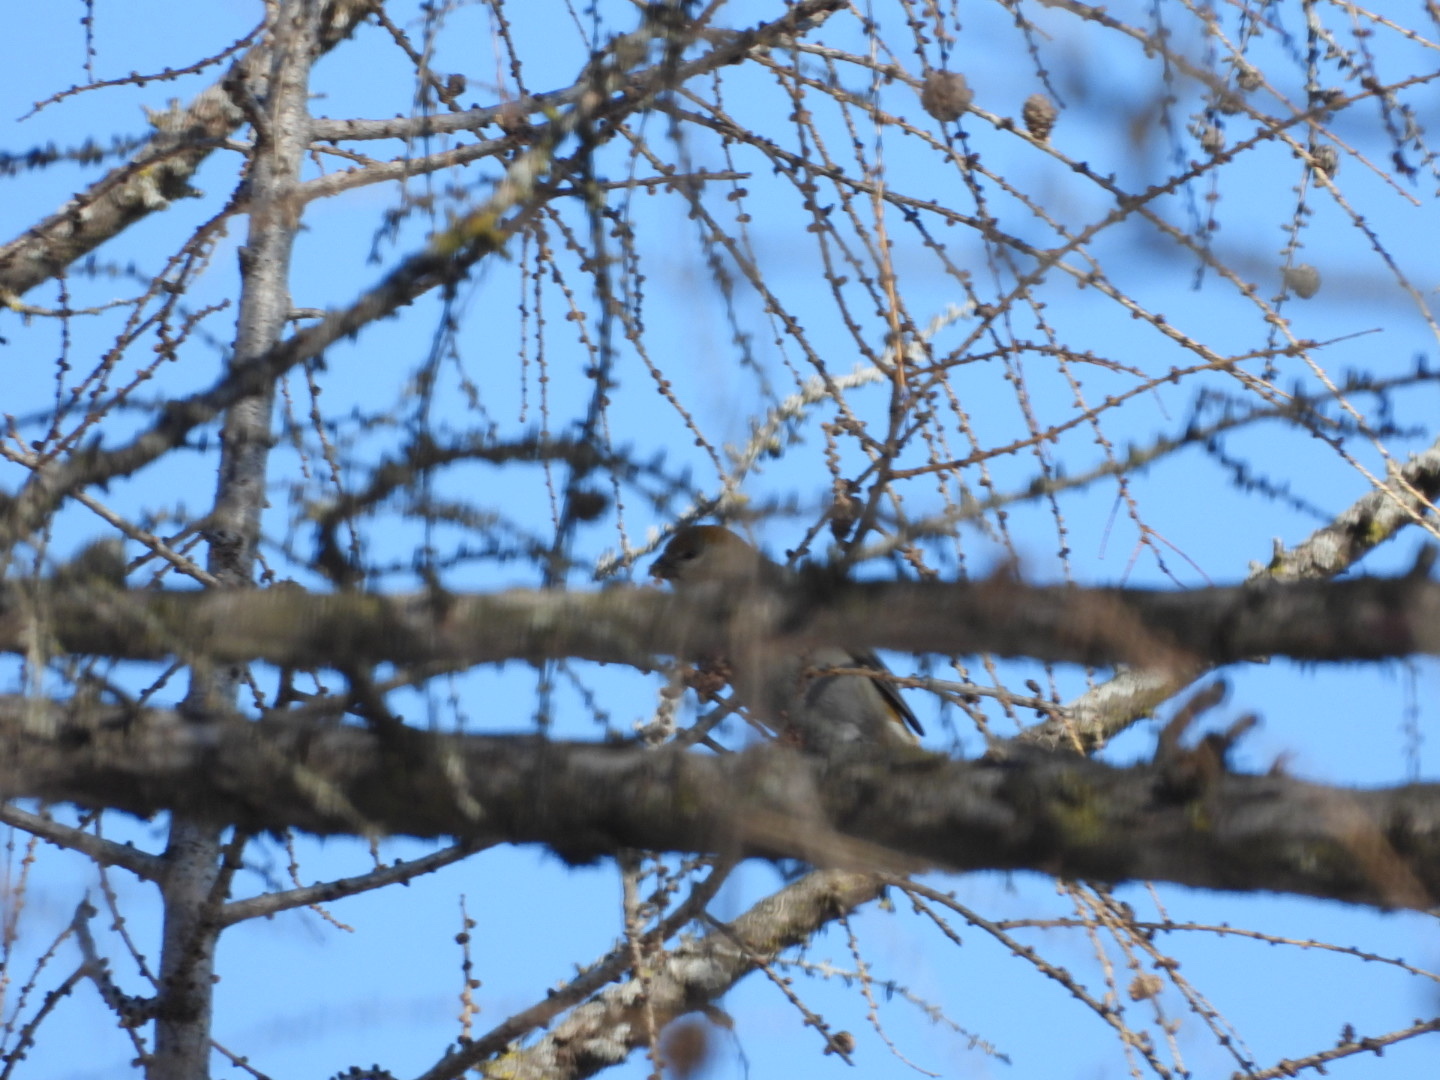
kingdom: Animalia
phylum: Chordata
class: Aves
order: Passeriformes
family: Fringillidae
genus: Pinicola
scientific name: Pinicola enucleator
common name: Pine grosbeak
